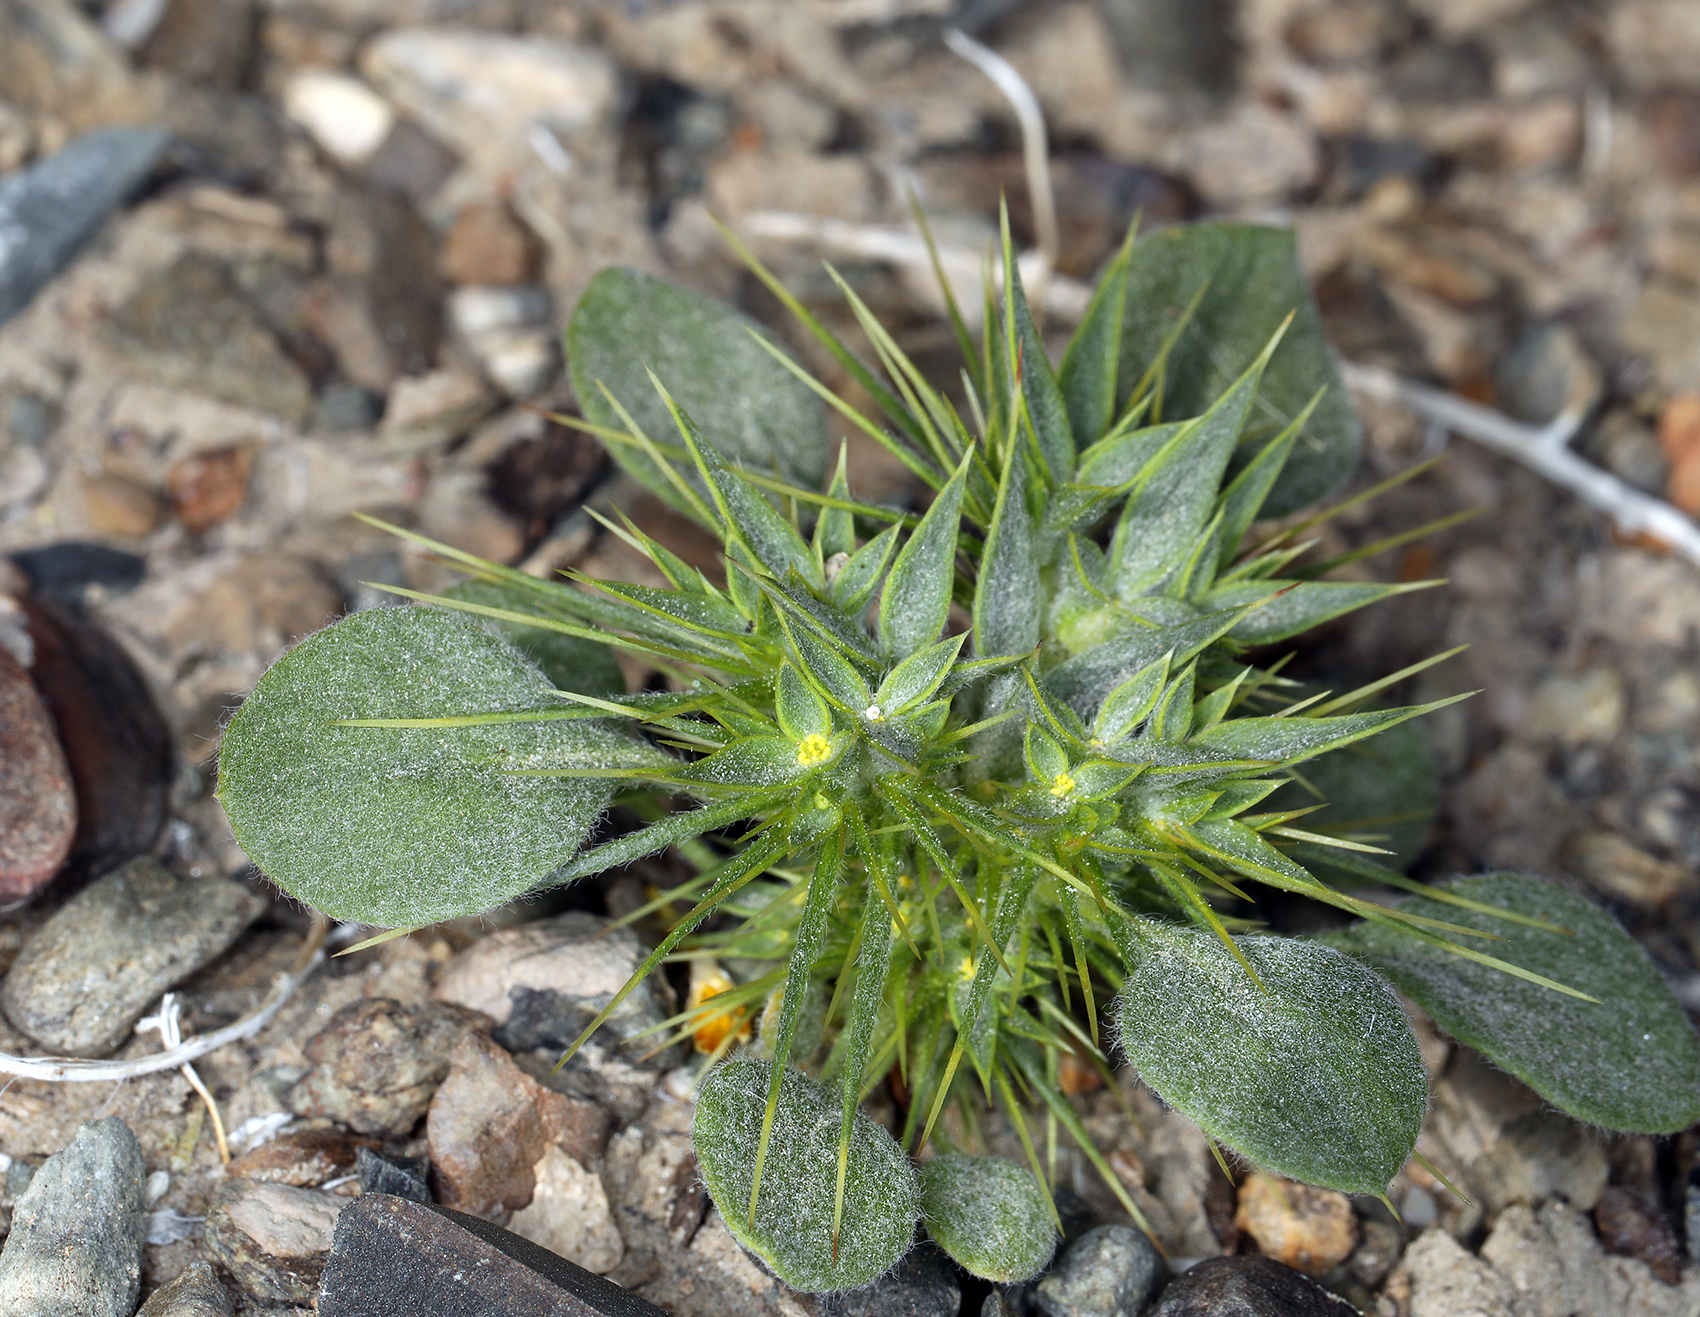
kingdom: Plantae
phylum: Tracheophyta
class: Magnoliopsida
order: Caryophyllales
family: Polygonaceae
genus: Chorizanthe
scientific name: Chorizanthe rigida
